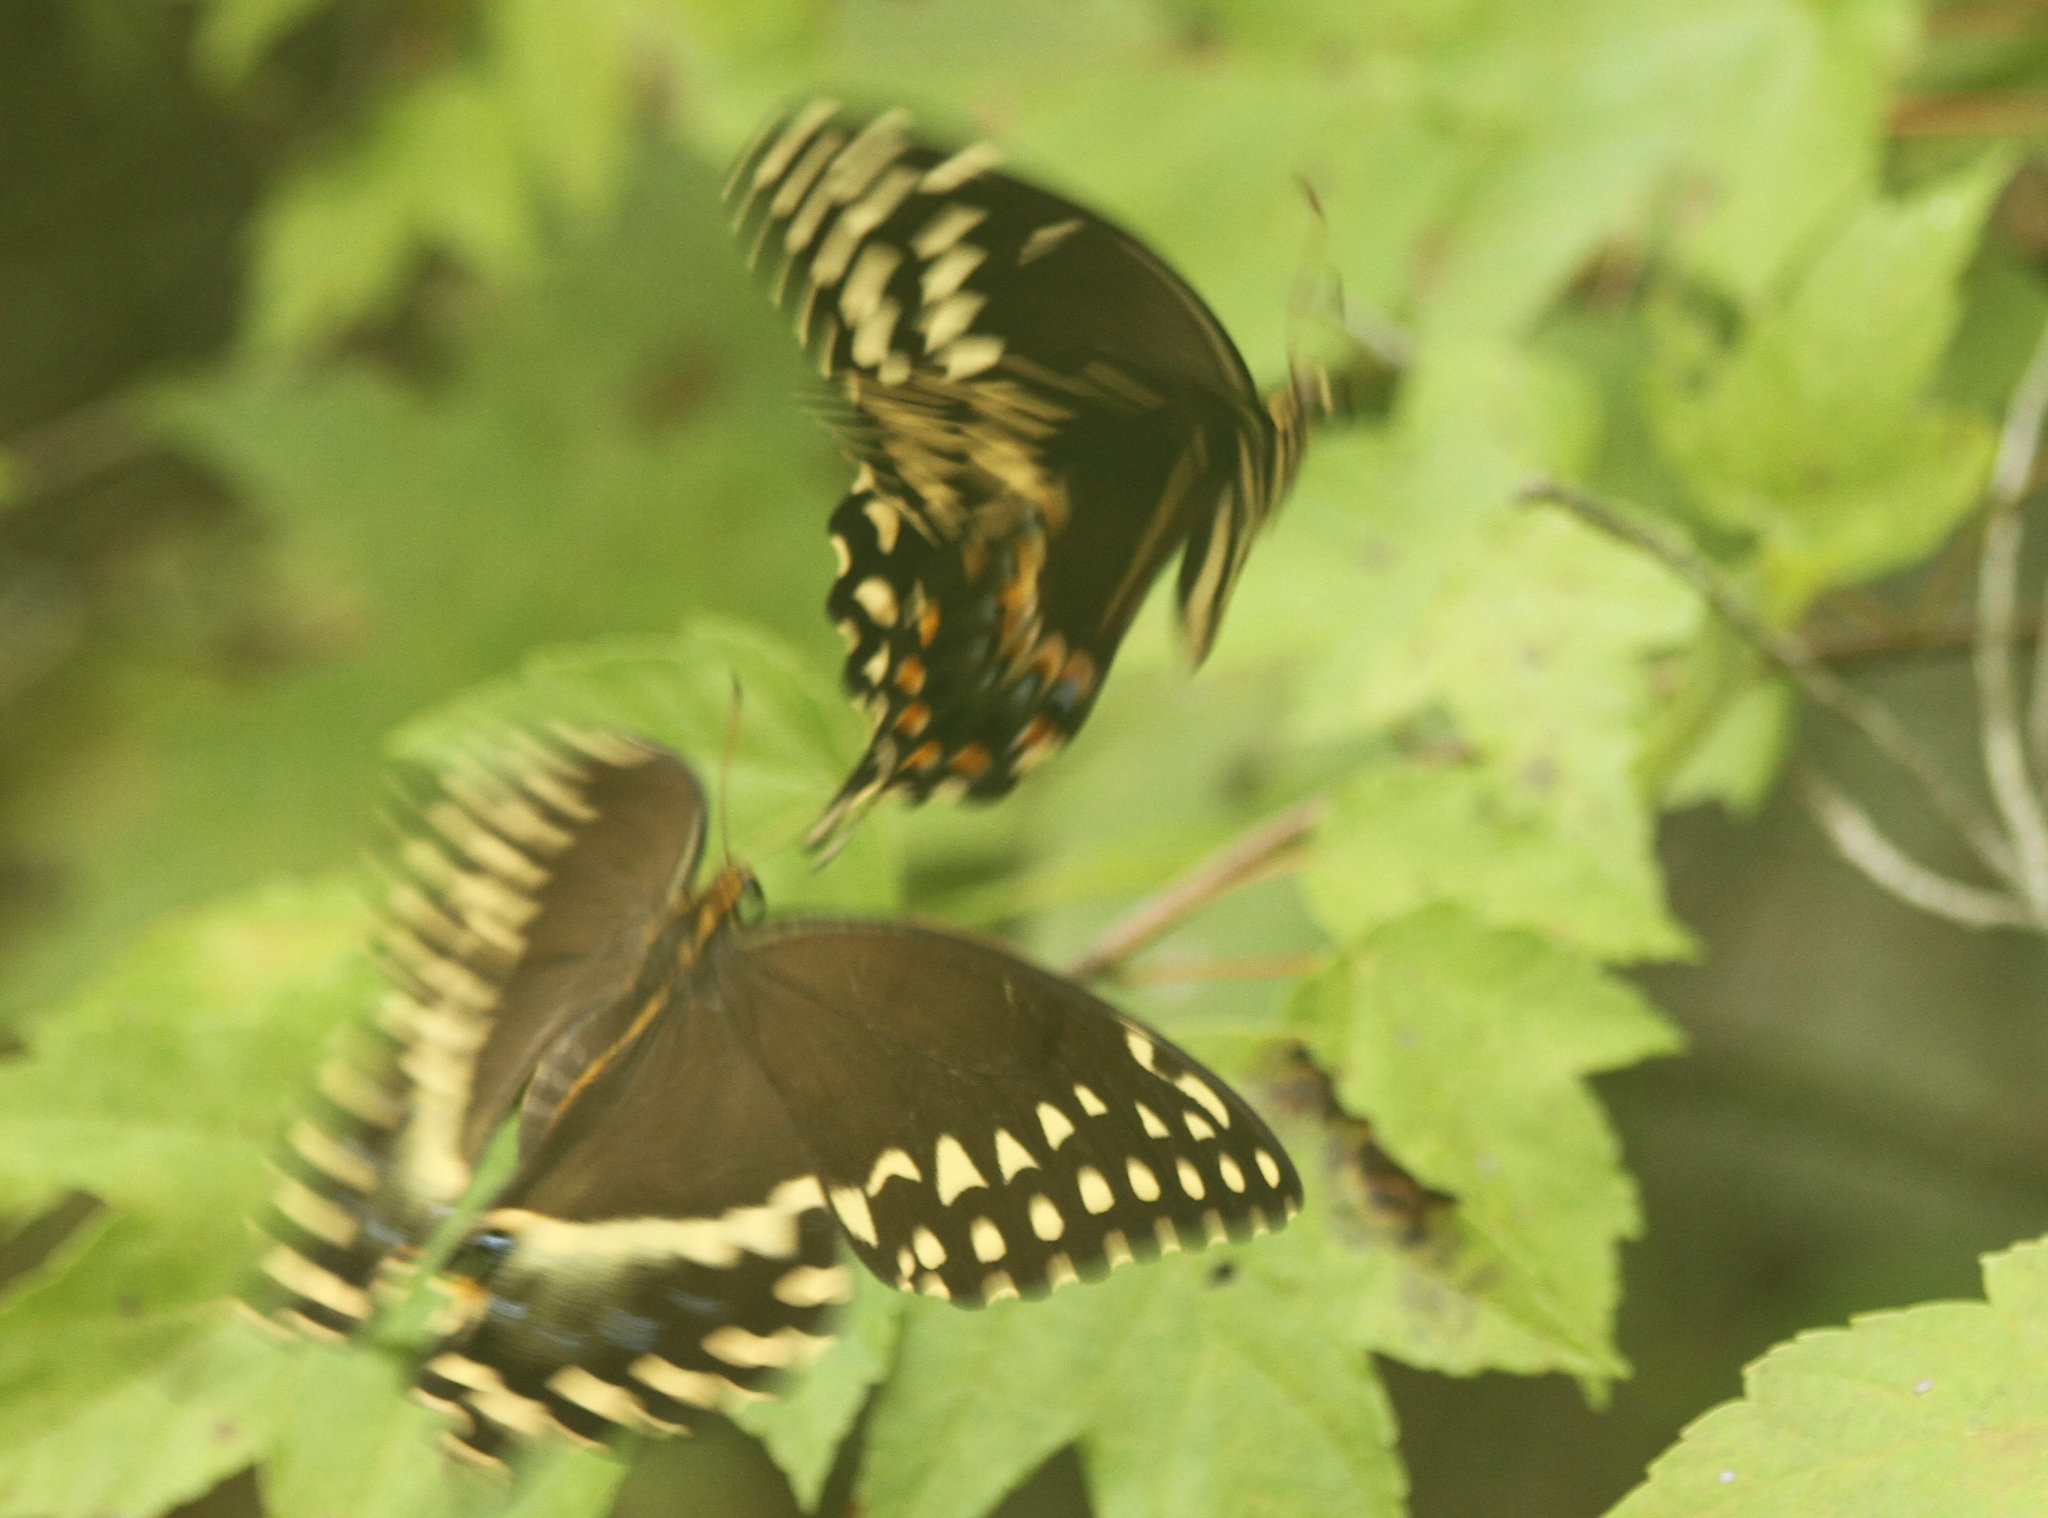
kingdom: Animalia
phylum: Arthropoda
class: Insecta
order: Lepidoptera
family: Papilionidae
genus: Papilio
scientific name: Papilio palamedes
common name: Palamedes swallowtail
